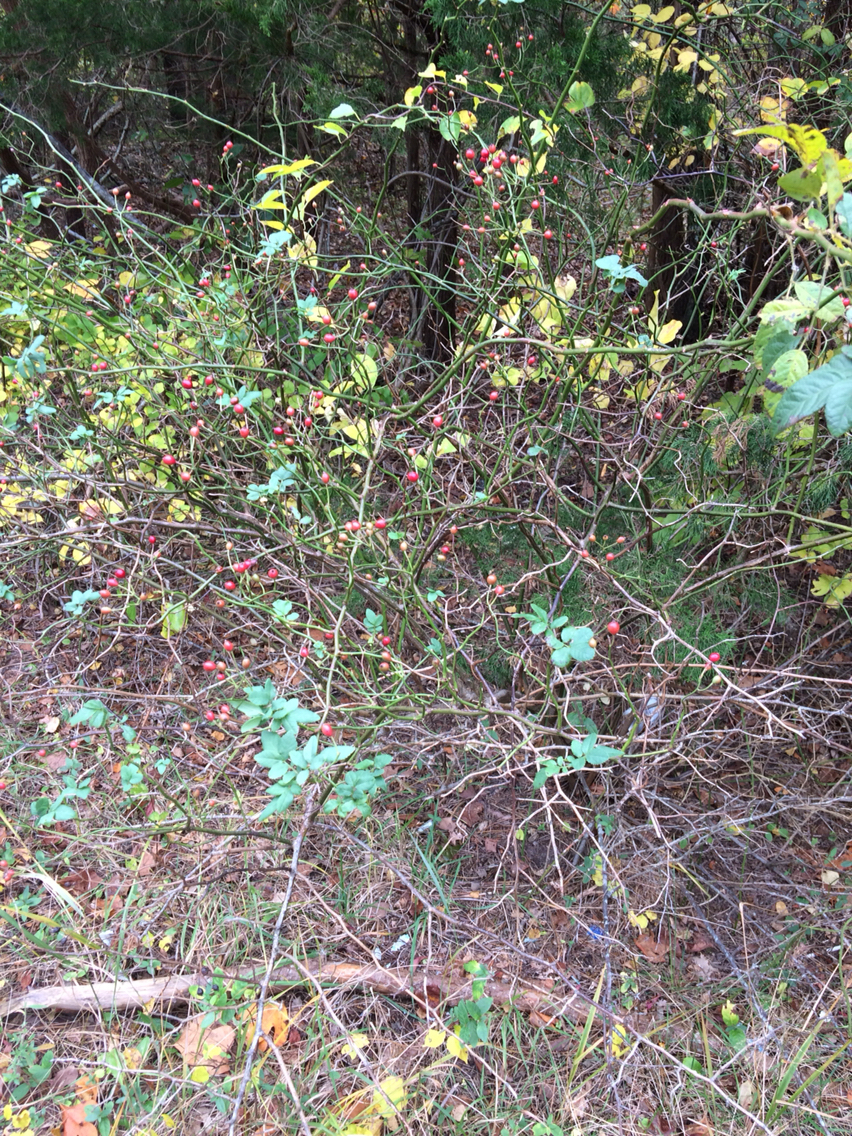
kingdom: Plantae
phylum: Tracheophyta
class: Magnoliopsida
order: Rosales
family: Rosaceae
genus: Rosa
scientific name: Rosa multiflora
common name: Multiflora rose
